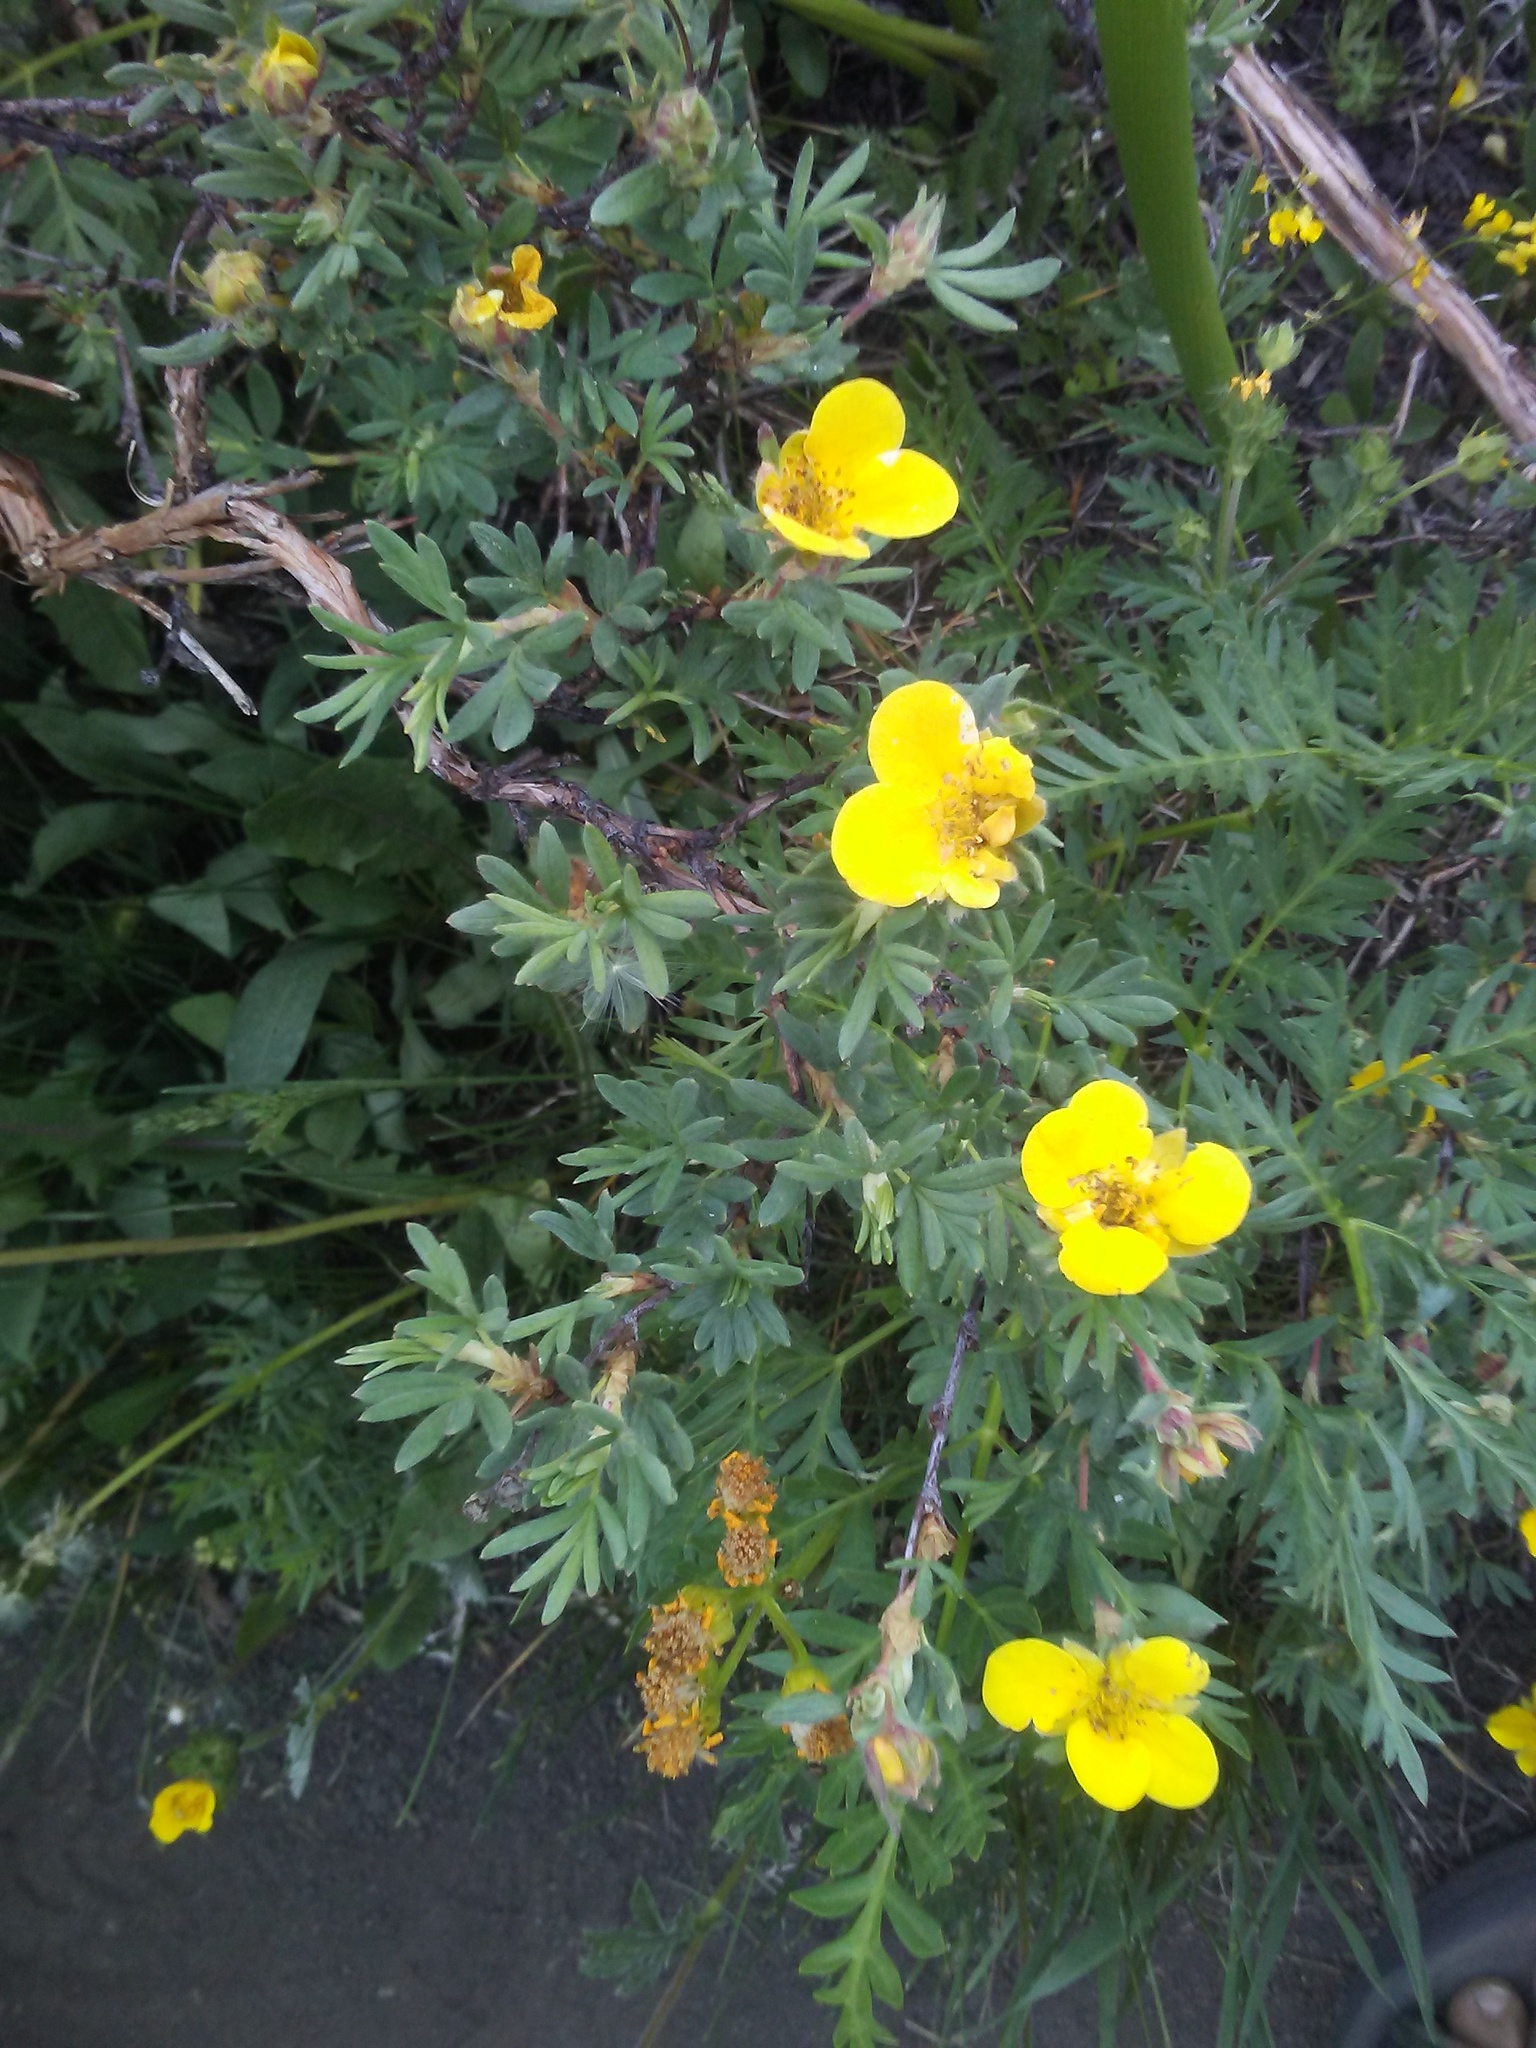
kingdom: Plantae
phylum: Tracheophyta
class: Magnoliopsida
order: Rosales
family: Rosaceae
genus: Dasiphora
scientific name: Dasiphora fruticosa
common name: Shrubby cinquefoil
